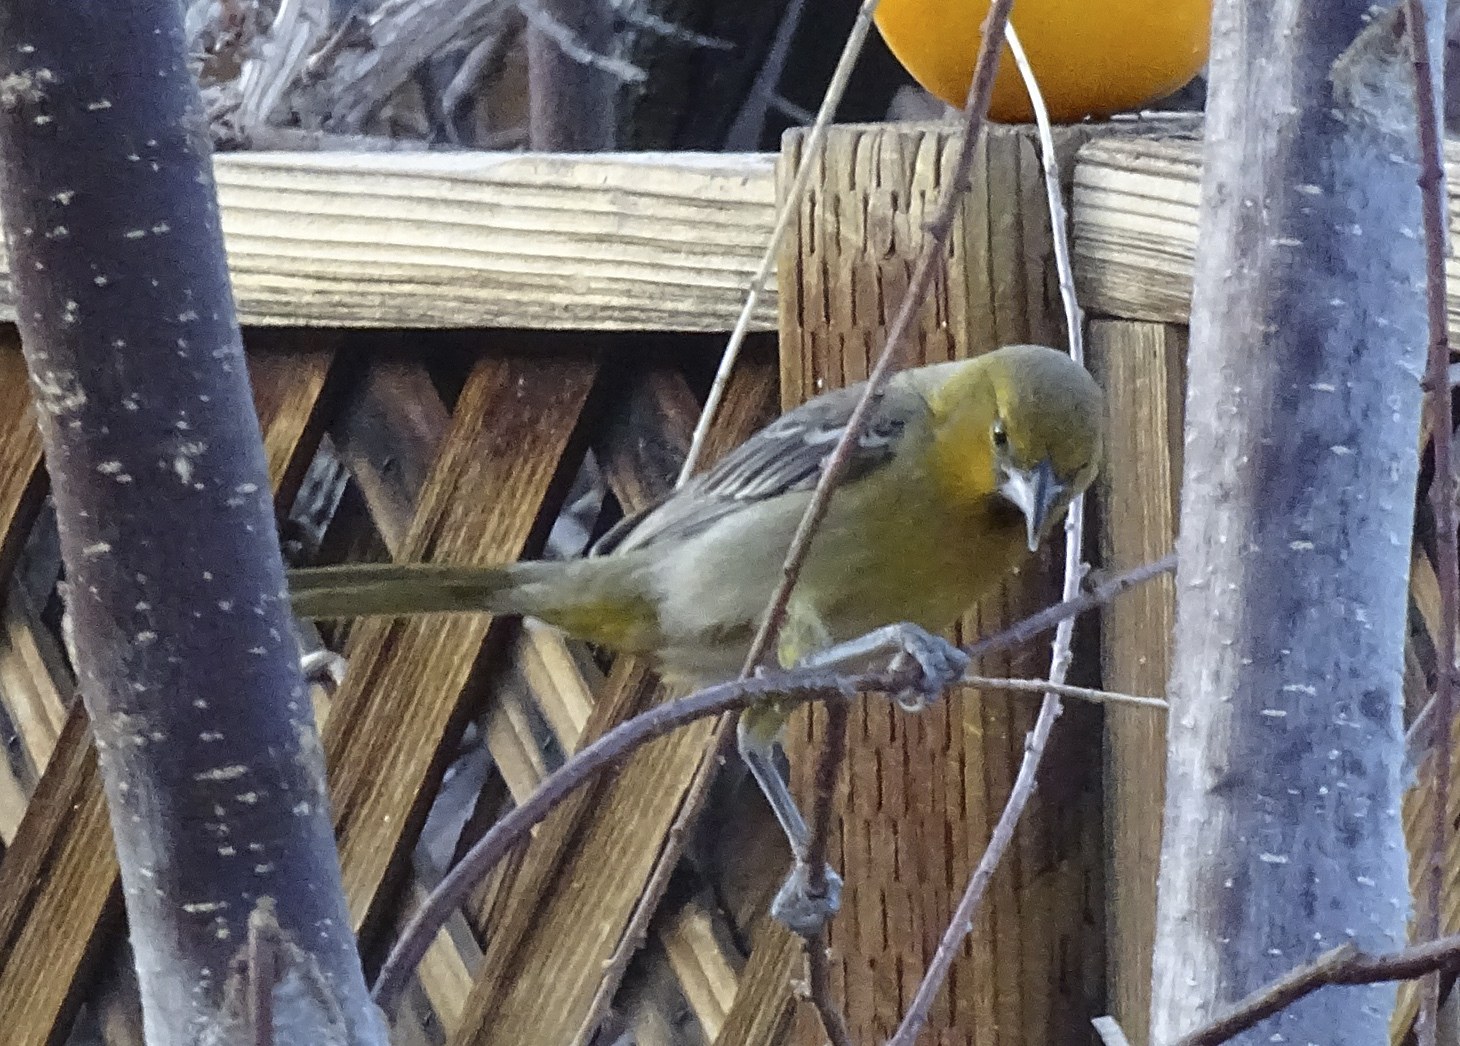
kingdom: Animalia
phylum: Chordata
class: Aves
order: Passeriformes
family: Icteridae
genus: Icterus
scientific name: Icterus pustulatus
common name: Streak-backed oriole
